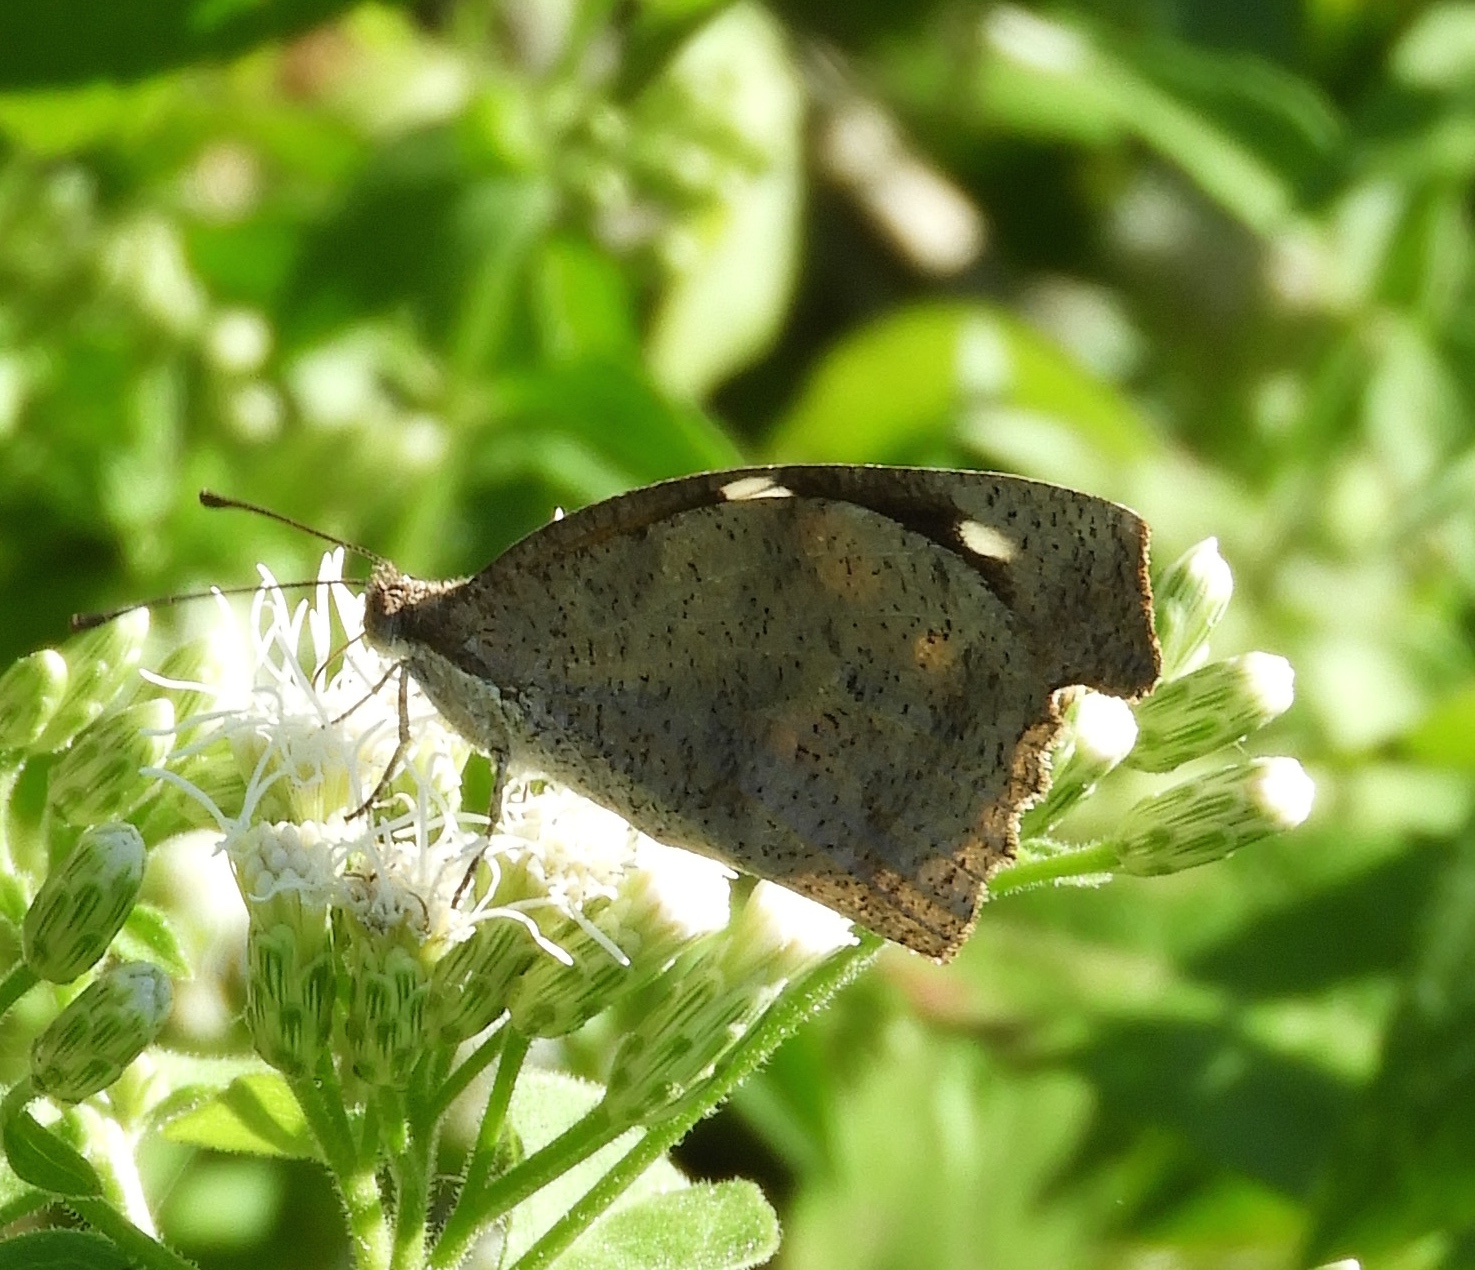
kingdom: Animalia
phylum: Arthropoda
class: Insecta
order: Lepidoptera
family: Nymphalidae
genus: Libytheana
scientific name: Libytheana carinenta
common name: American snout
